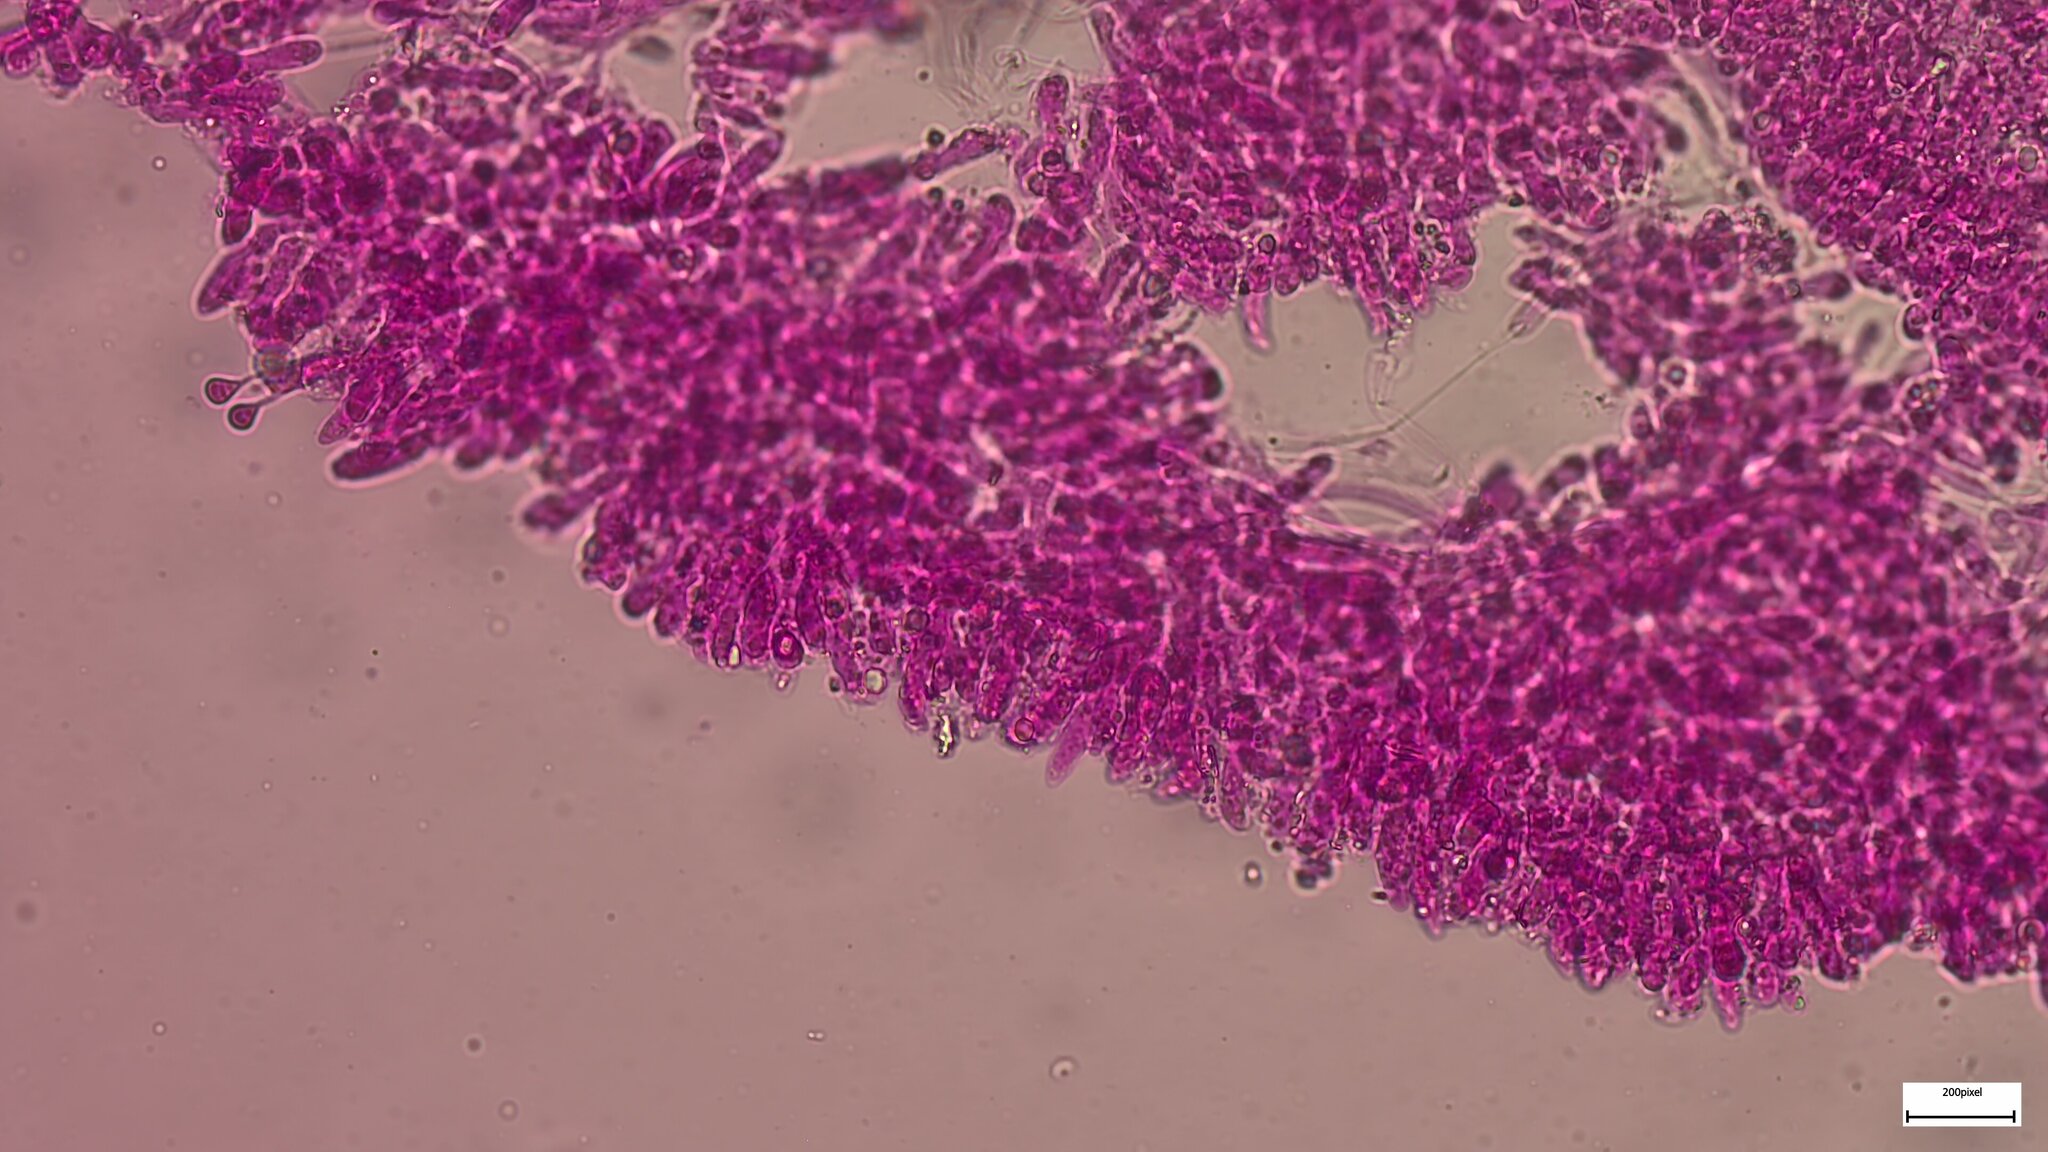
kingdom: Fungi
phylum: Basidiomycota
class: Agaricomycetes
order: Agaricales
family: Marasmiaceae
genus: Tetrapyrgos
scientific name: Tetrapyrgos nigripes
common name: Black-stalked marasmius
